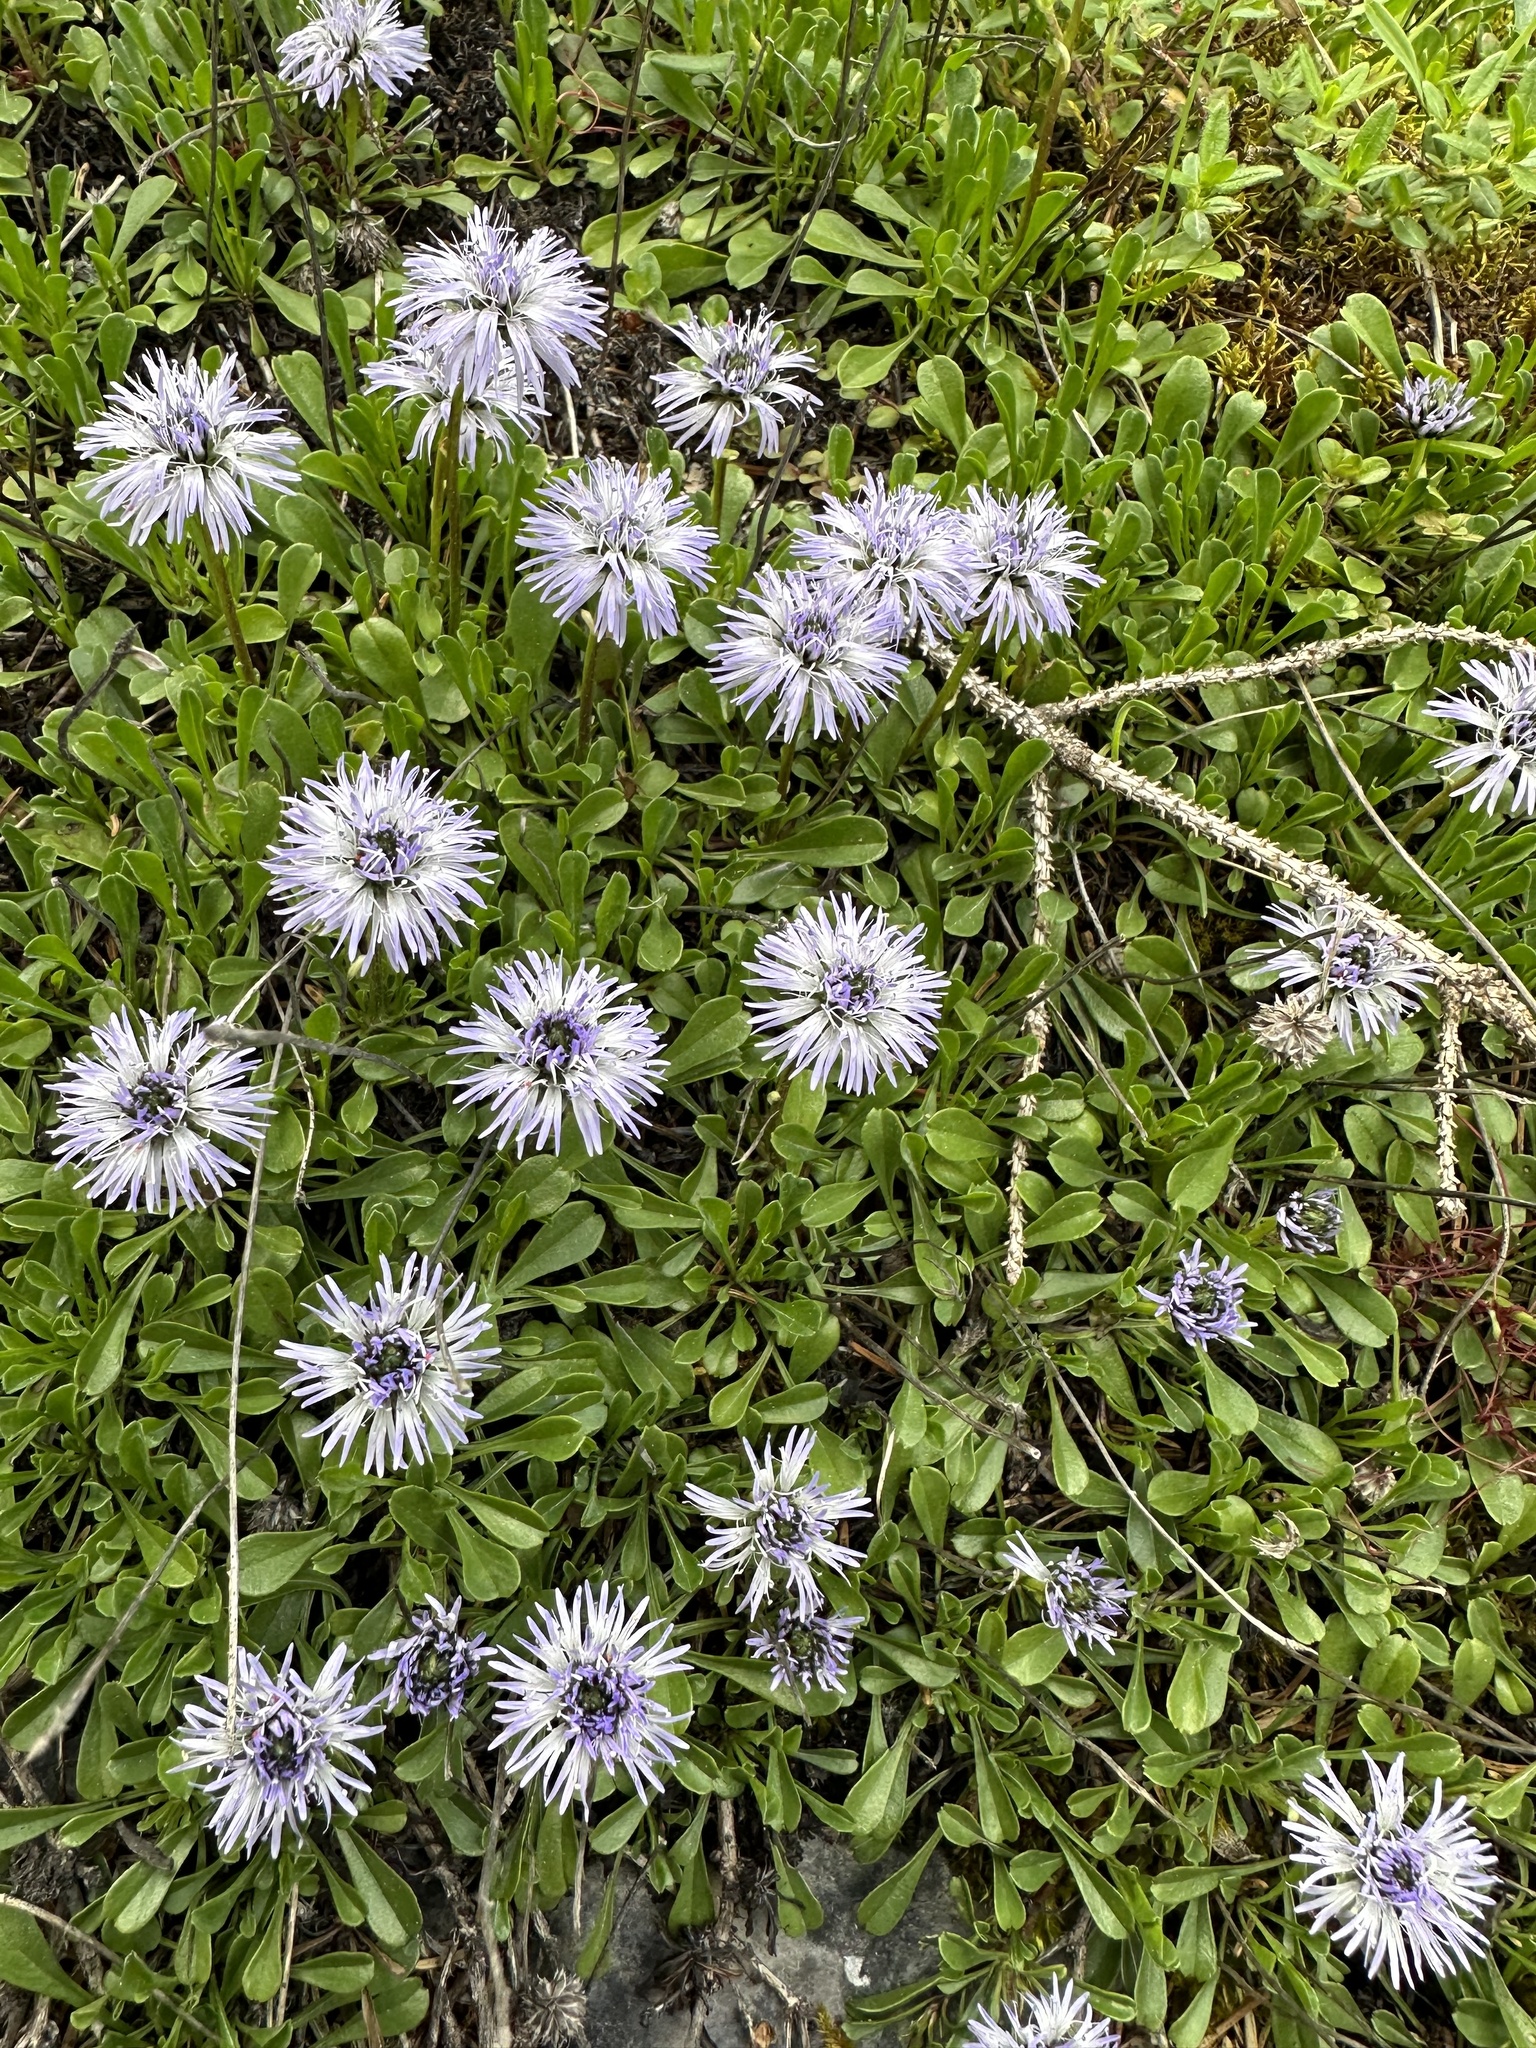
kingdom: Plantae
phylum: Tracheophyta
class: Magnoliopsida
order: Lamiales
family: Plantaginaceae
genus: Globularia
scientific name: Globularia cordifolia
